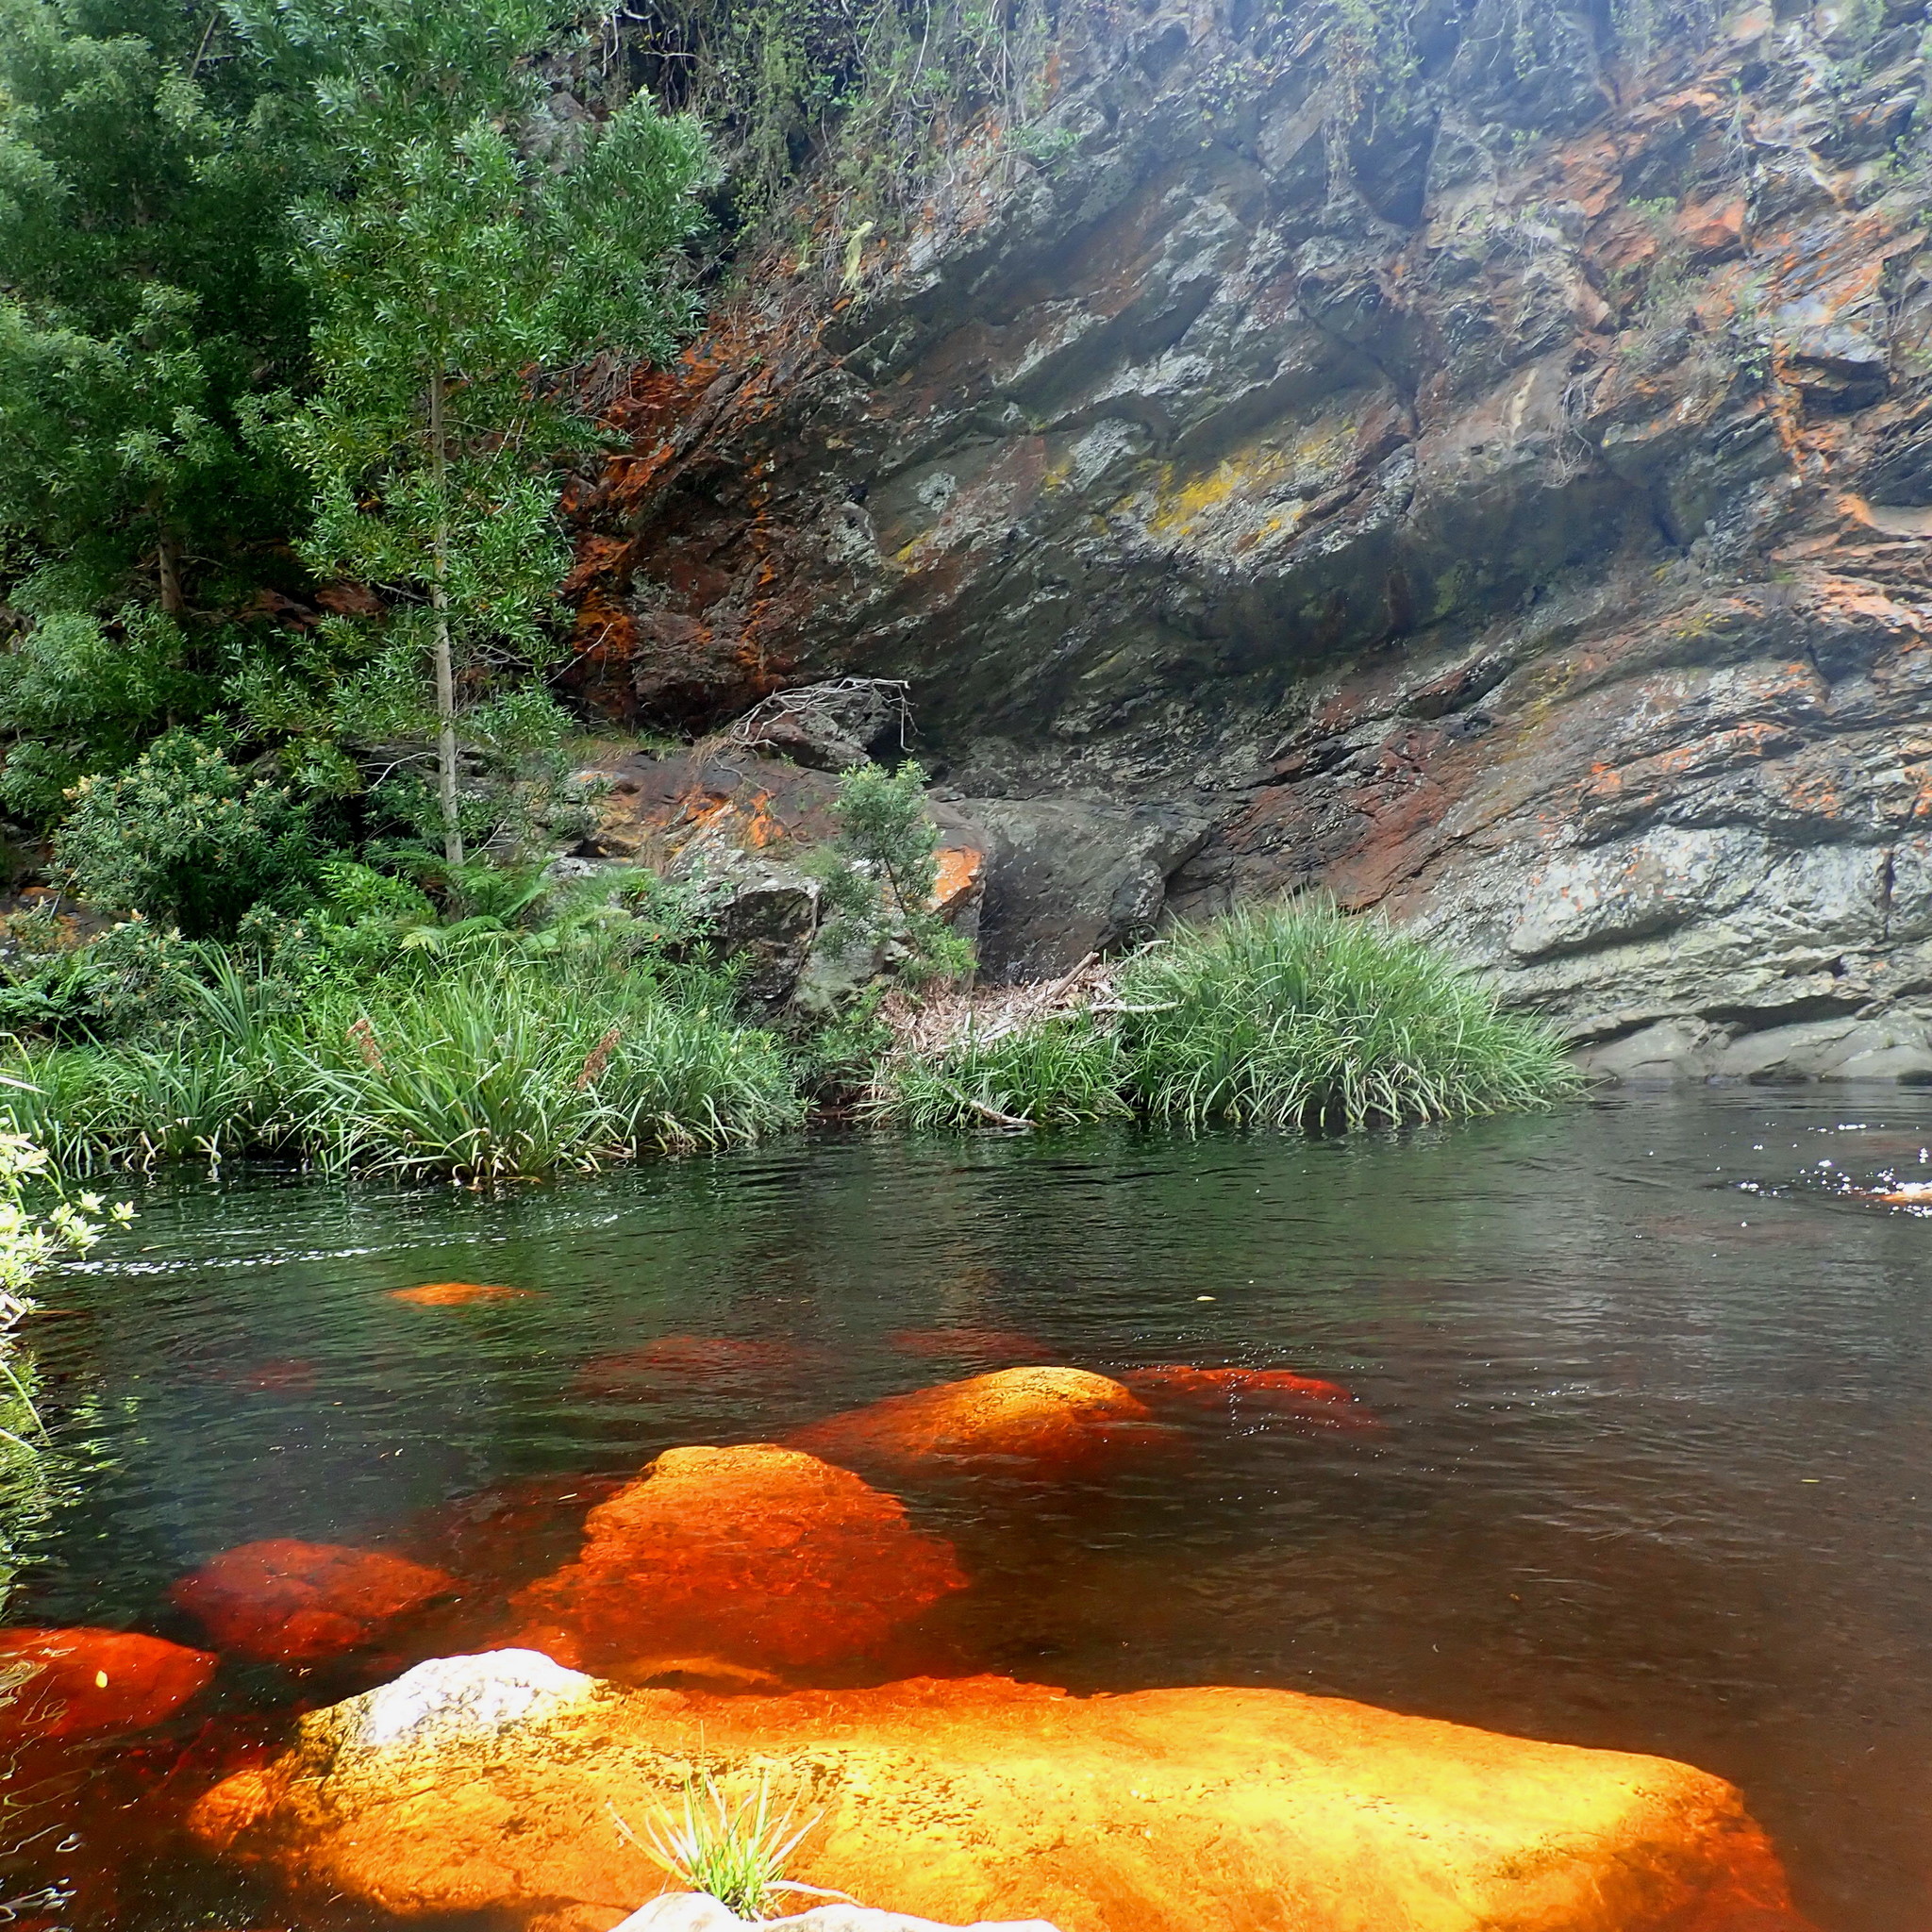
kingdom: Plantae
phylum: Tracheophyta
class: Magnoliopsida
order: Fabales
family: Fabaceae
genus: Acacia
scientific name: Acacia melanoxylon
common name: Blackwood
